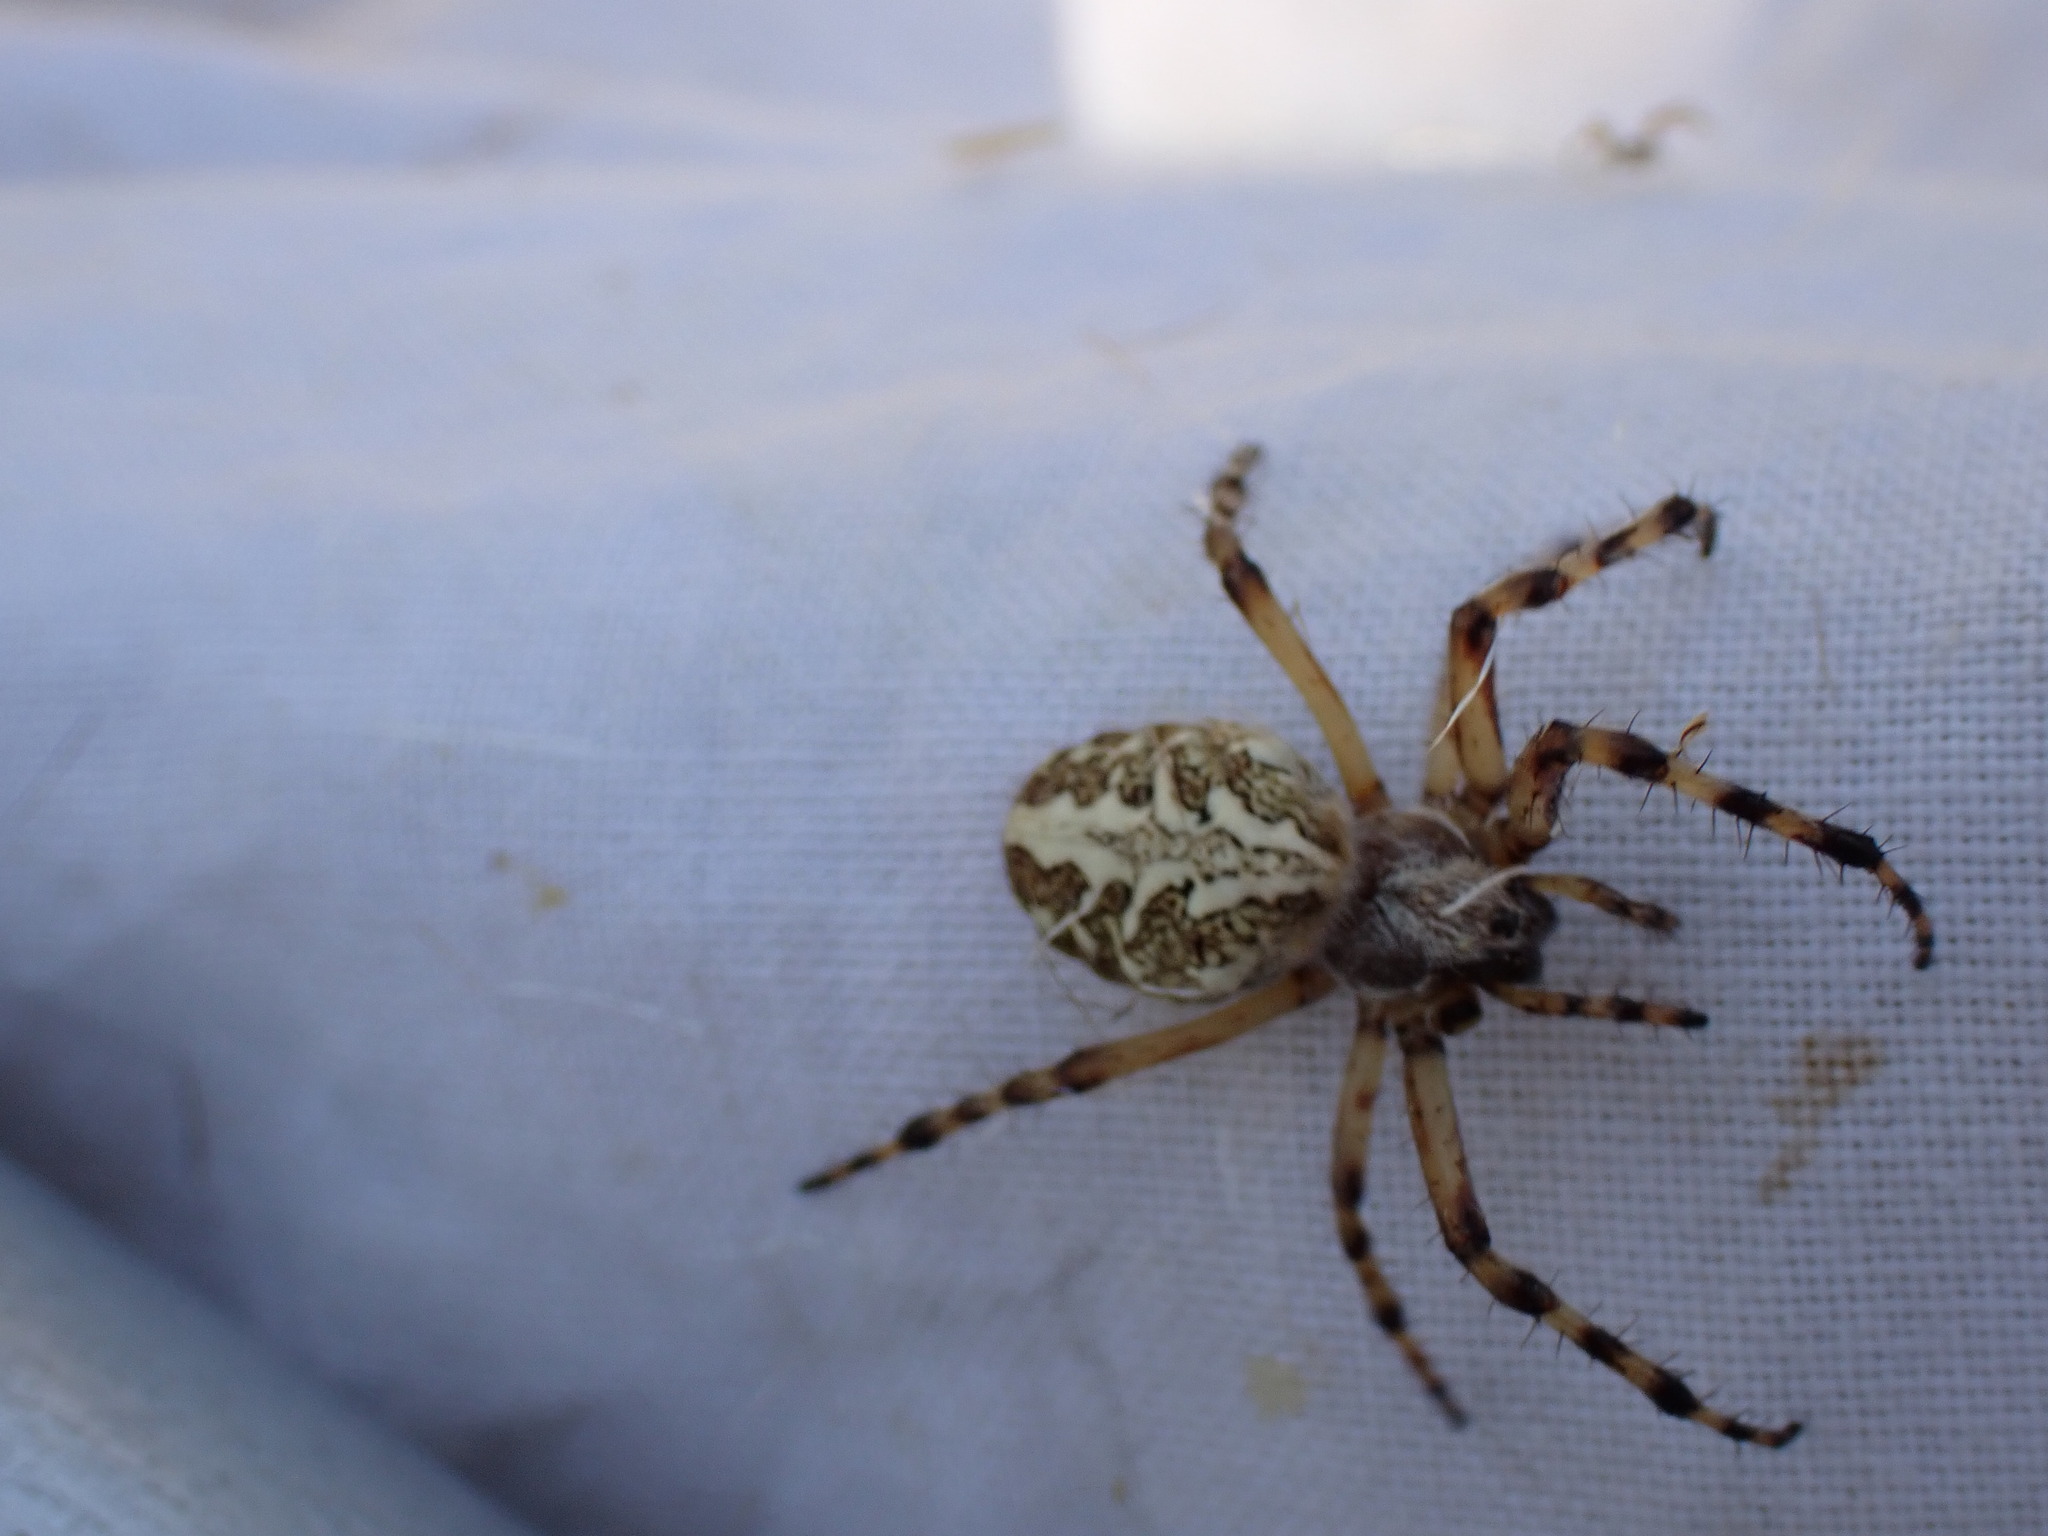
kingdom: Animalia
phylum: Arthropoda
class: Arachnida
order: Araneae
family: Araneidae
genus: Aculepeira
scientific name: Aculepeira ceropegia
